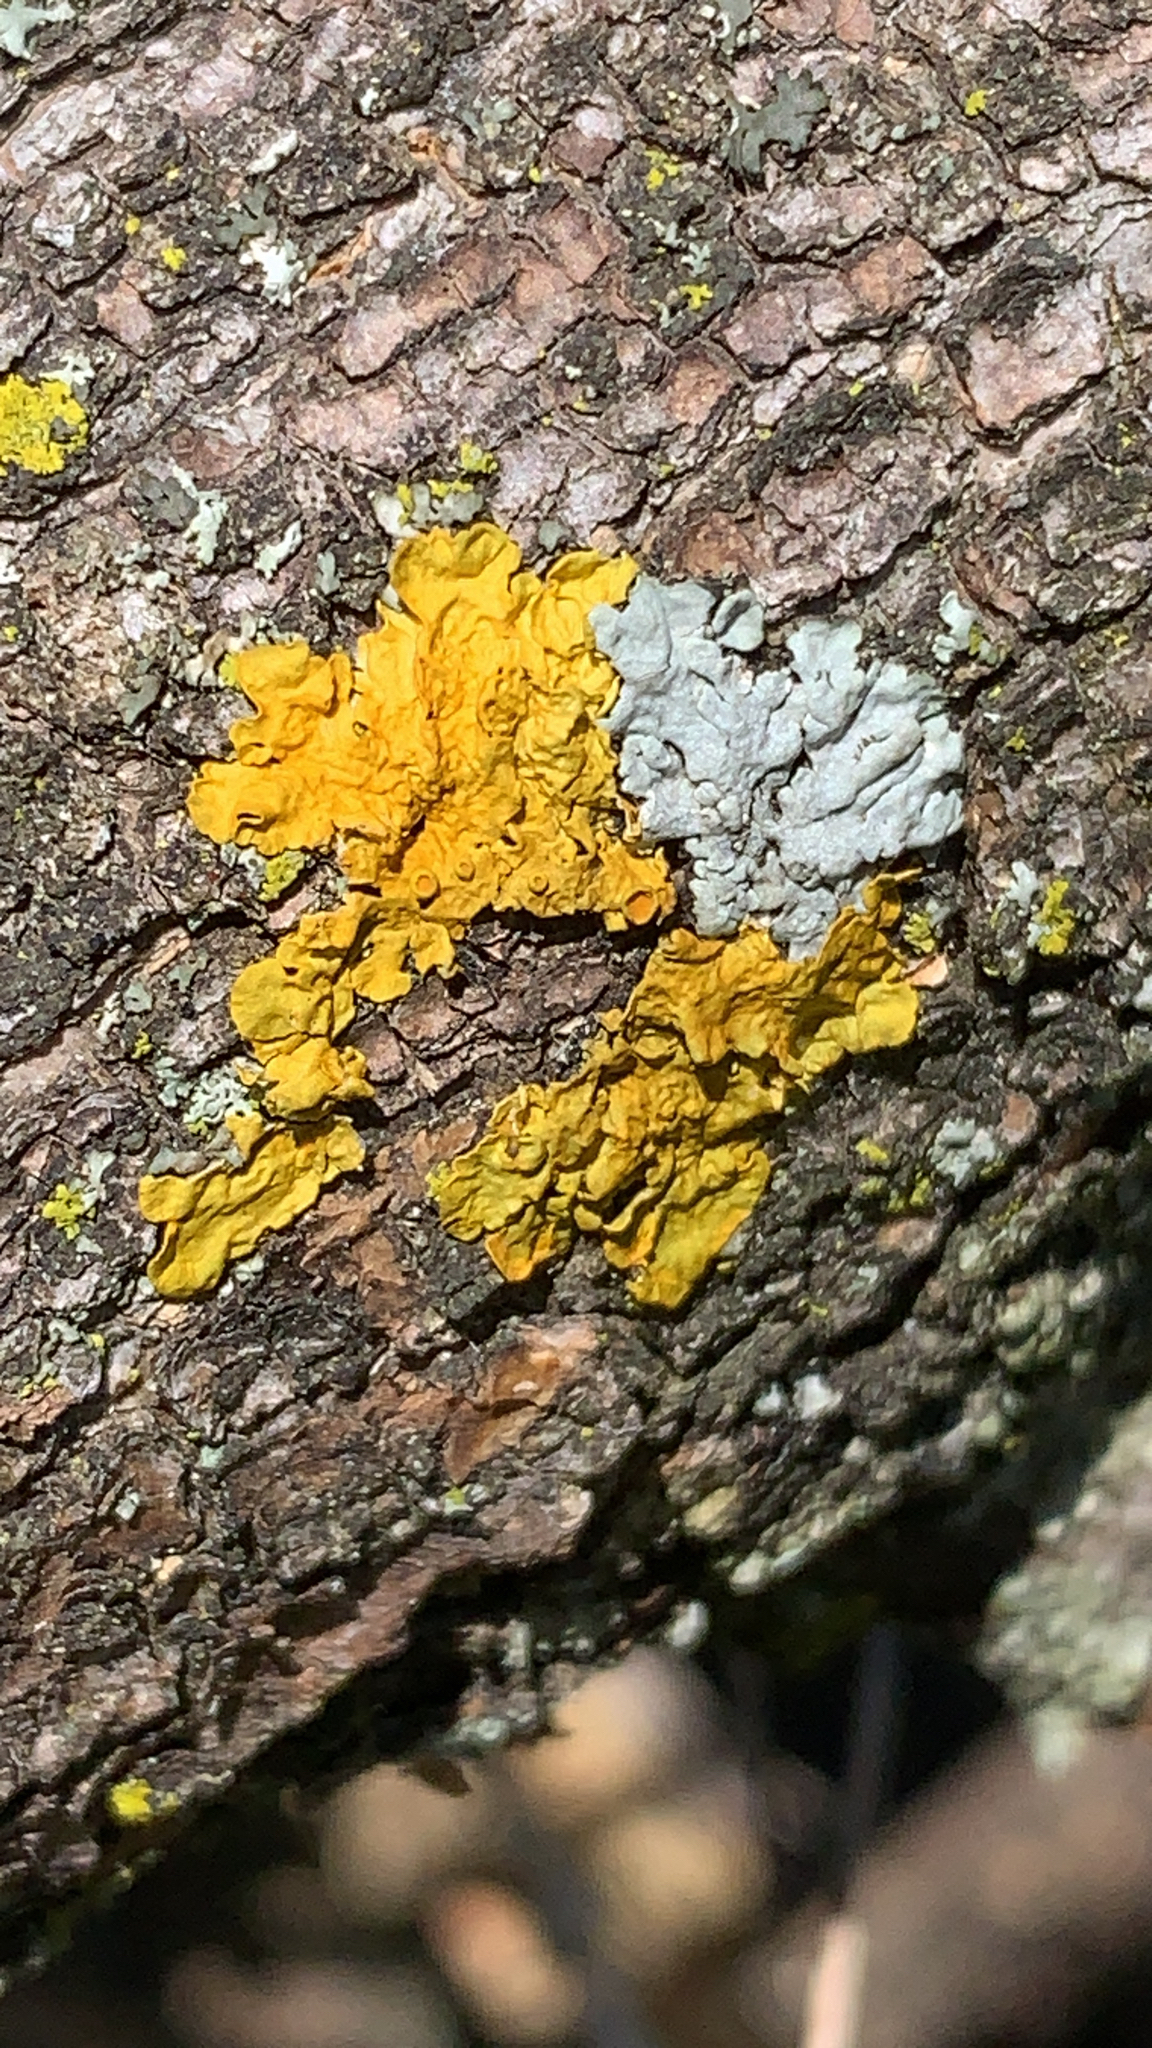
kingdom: Fungi
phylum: Ascomycota
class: Lecanoromycetes
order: Teloschistales
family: Teloschistaceae
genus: Xanthoria
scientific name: Xanthoria parietina
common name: Common orange lichen
